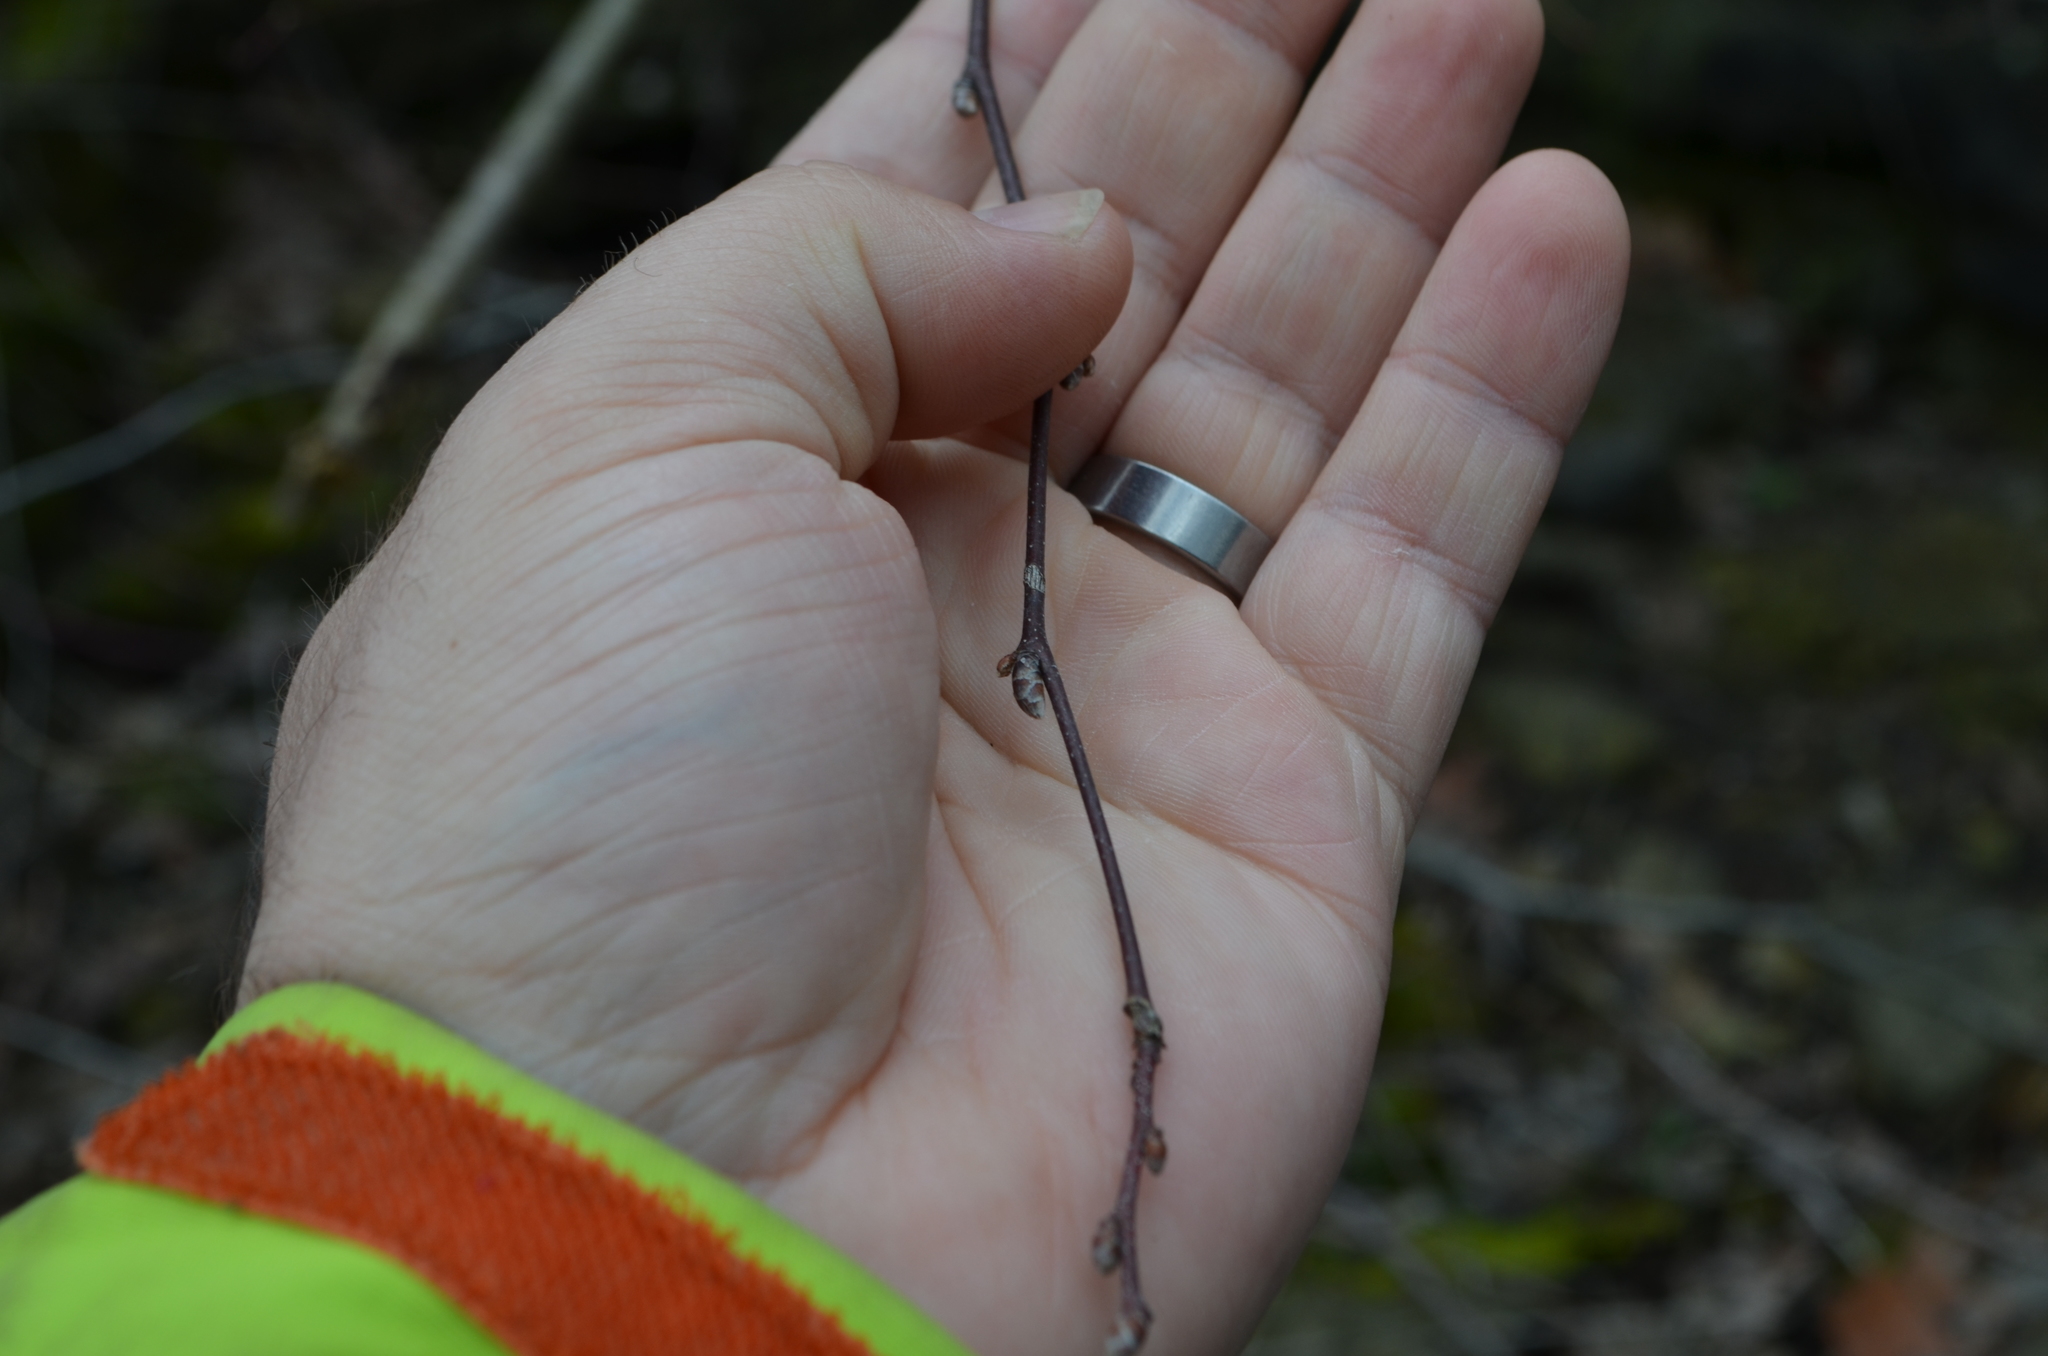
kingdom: Plantae
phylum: Tracheophyta
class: Magnoliopsida
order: Fagales
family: Betulaceae
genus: Carpinus
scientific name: Carpinus caroliniana
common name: American hornbeam
